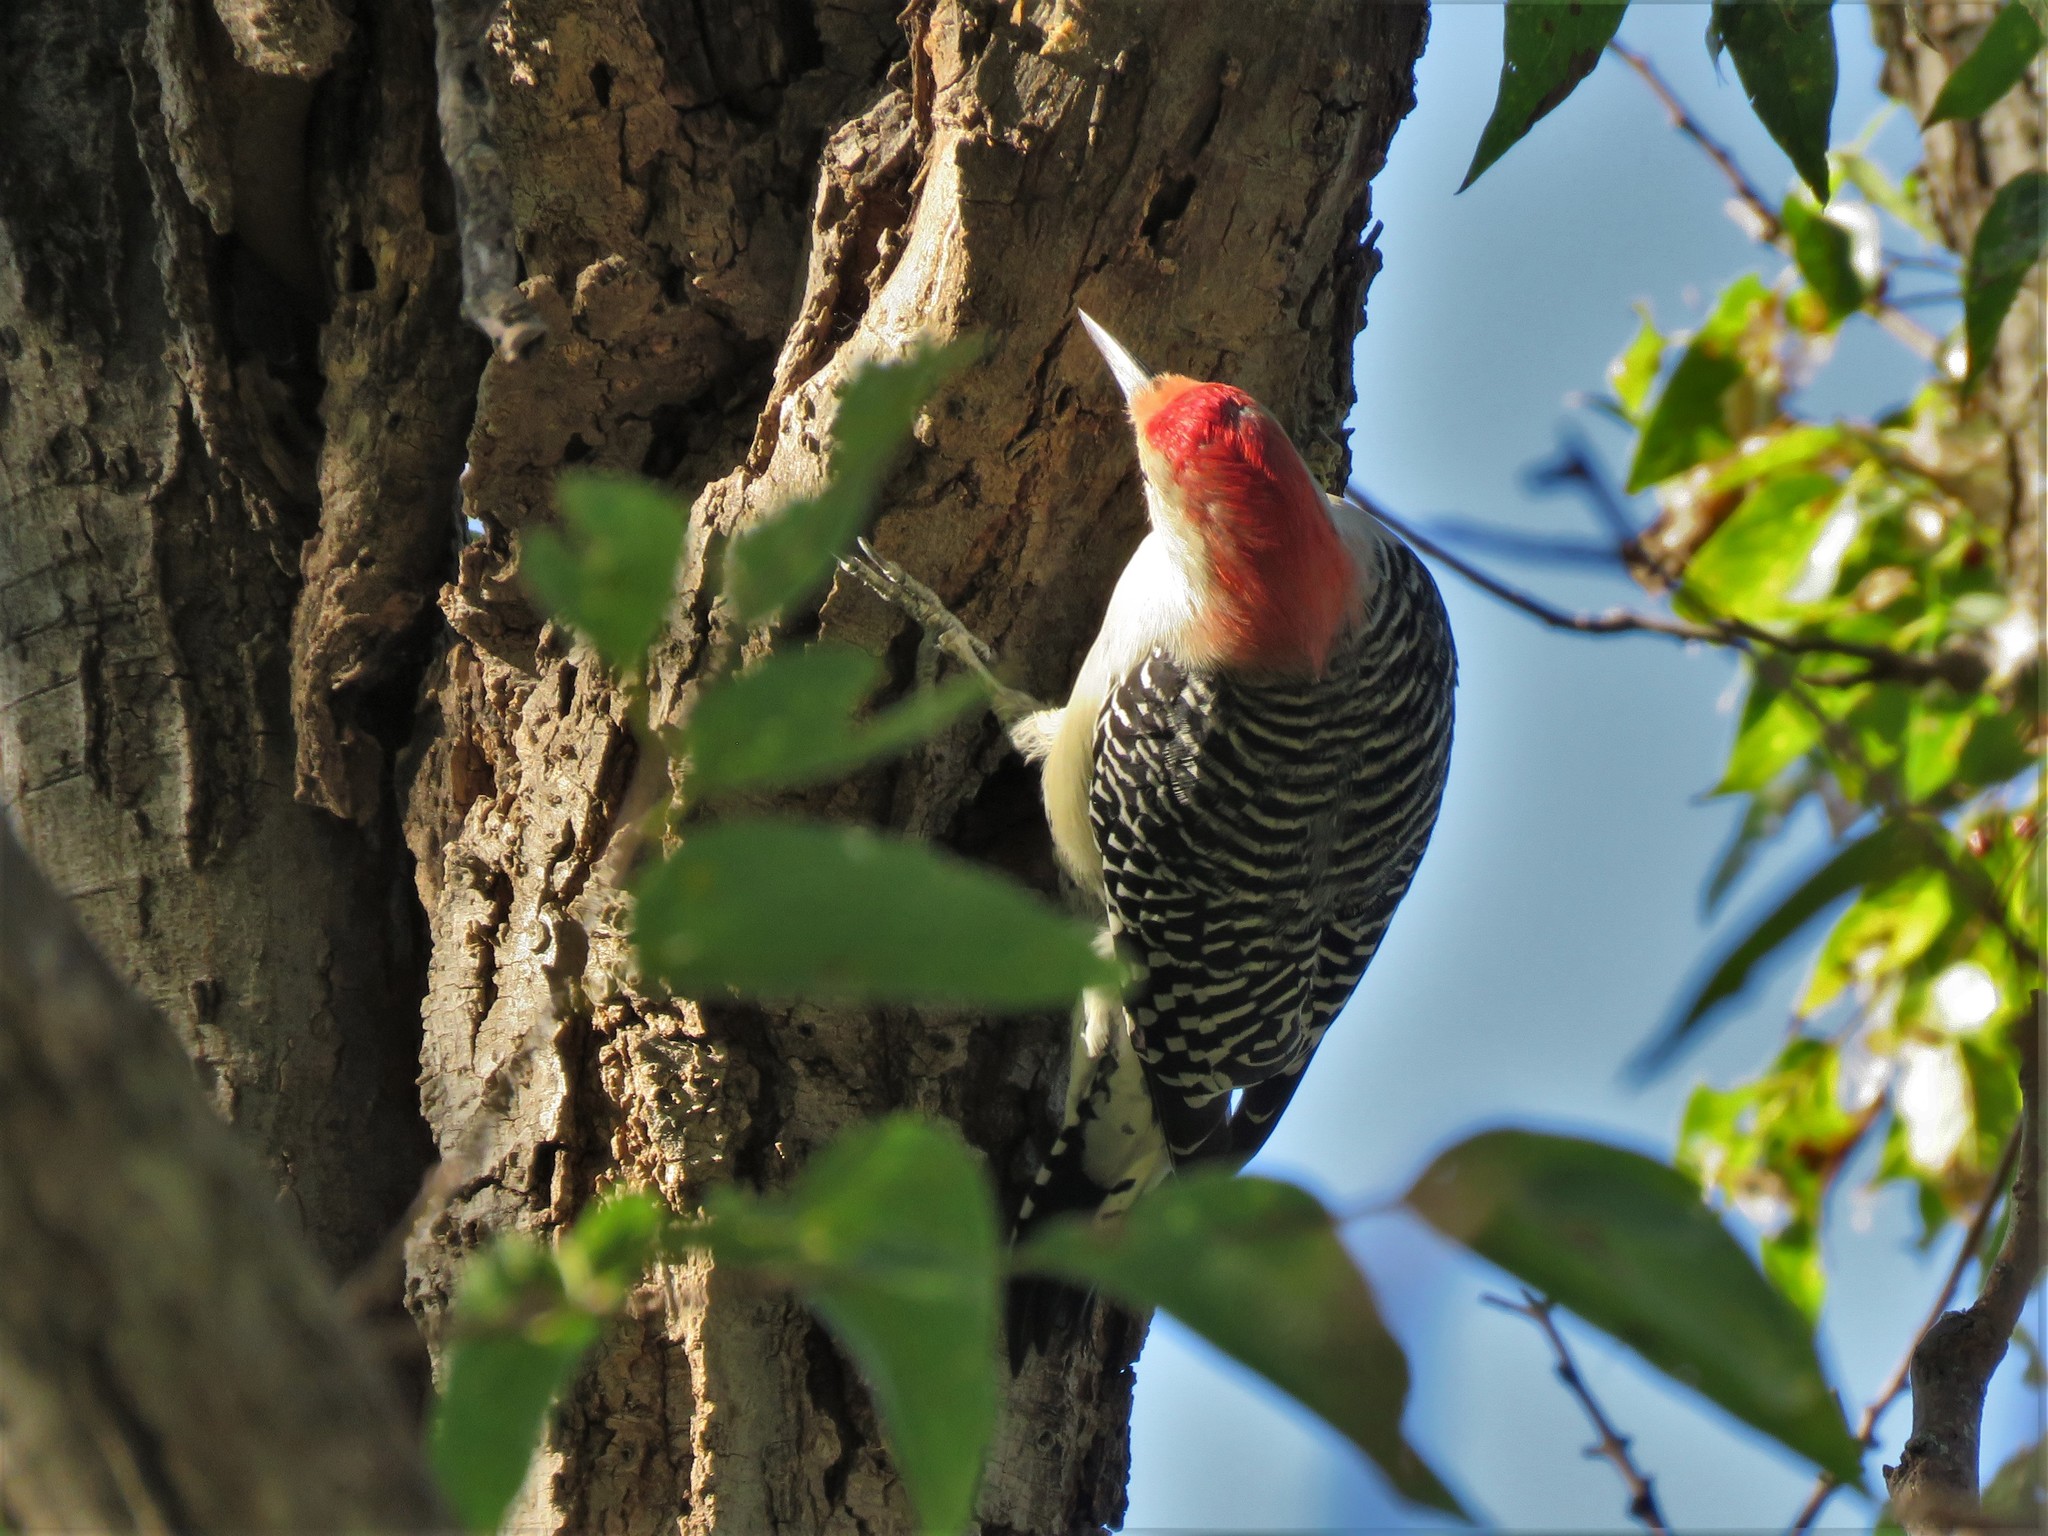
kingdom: Animalia
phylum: Chordata
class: Aves
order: Piciformes
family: Picidae
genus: Melanerpes
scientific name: Melanerpes carolinus
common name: Red-bellied woodpecker
